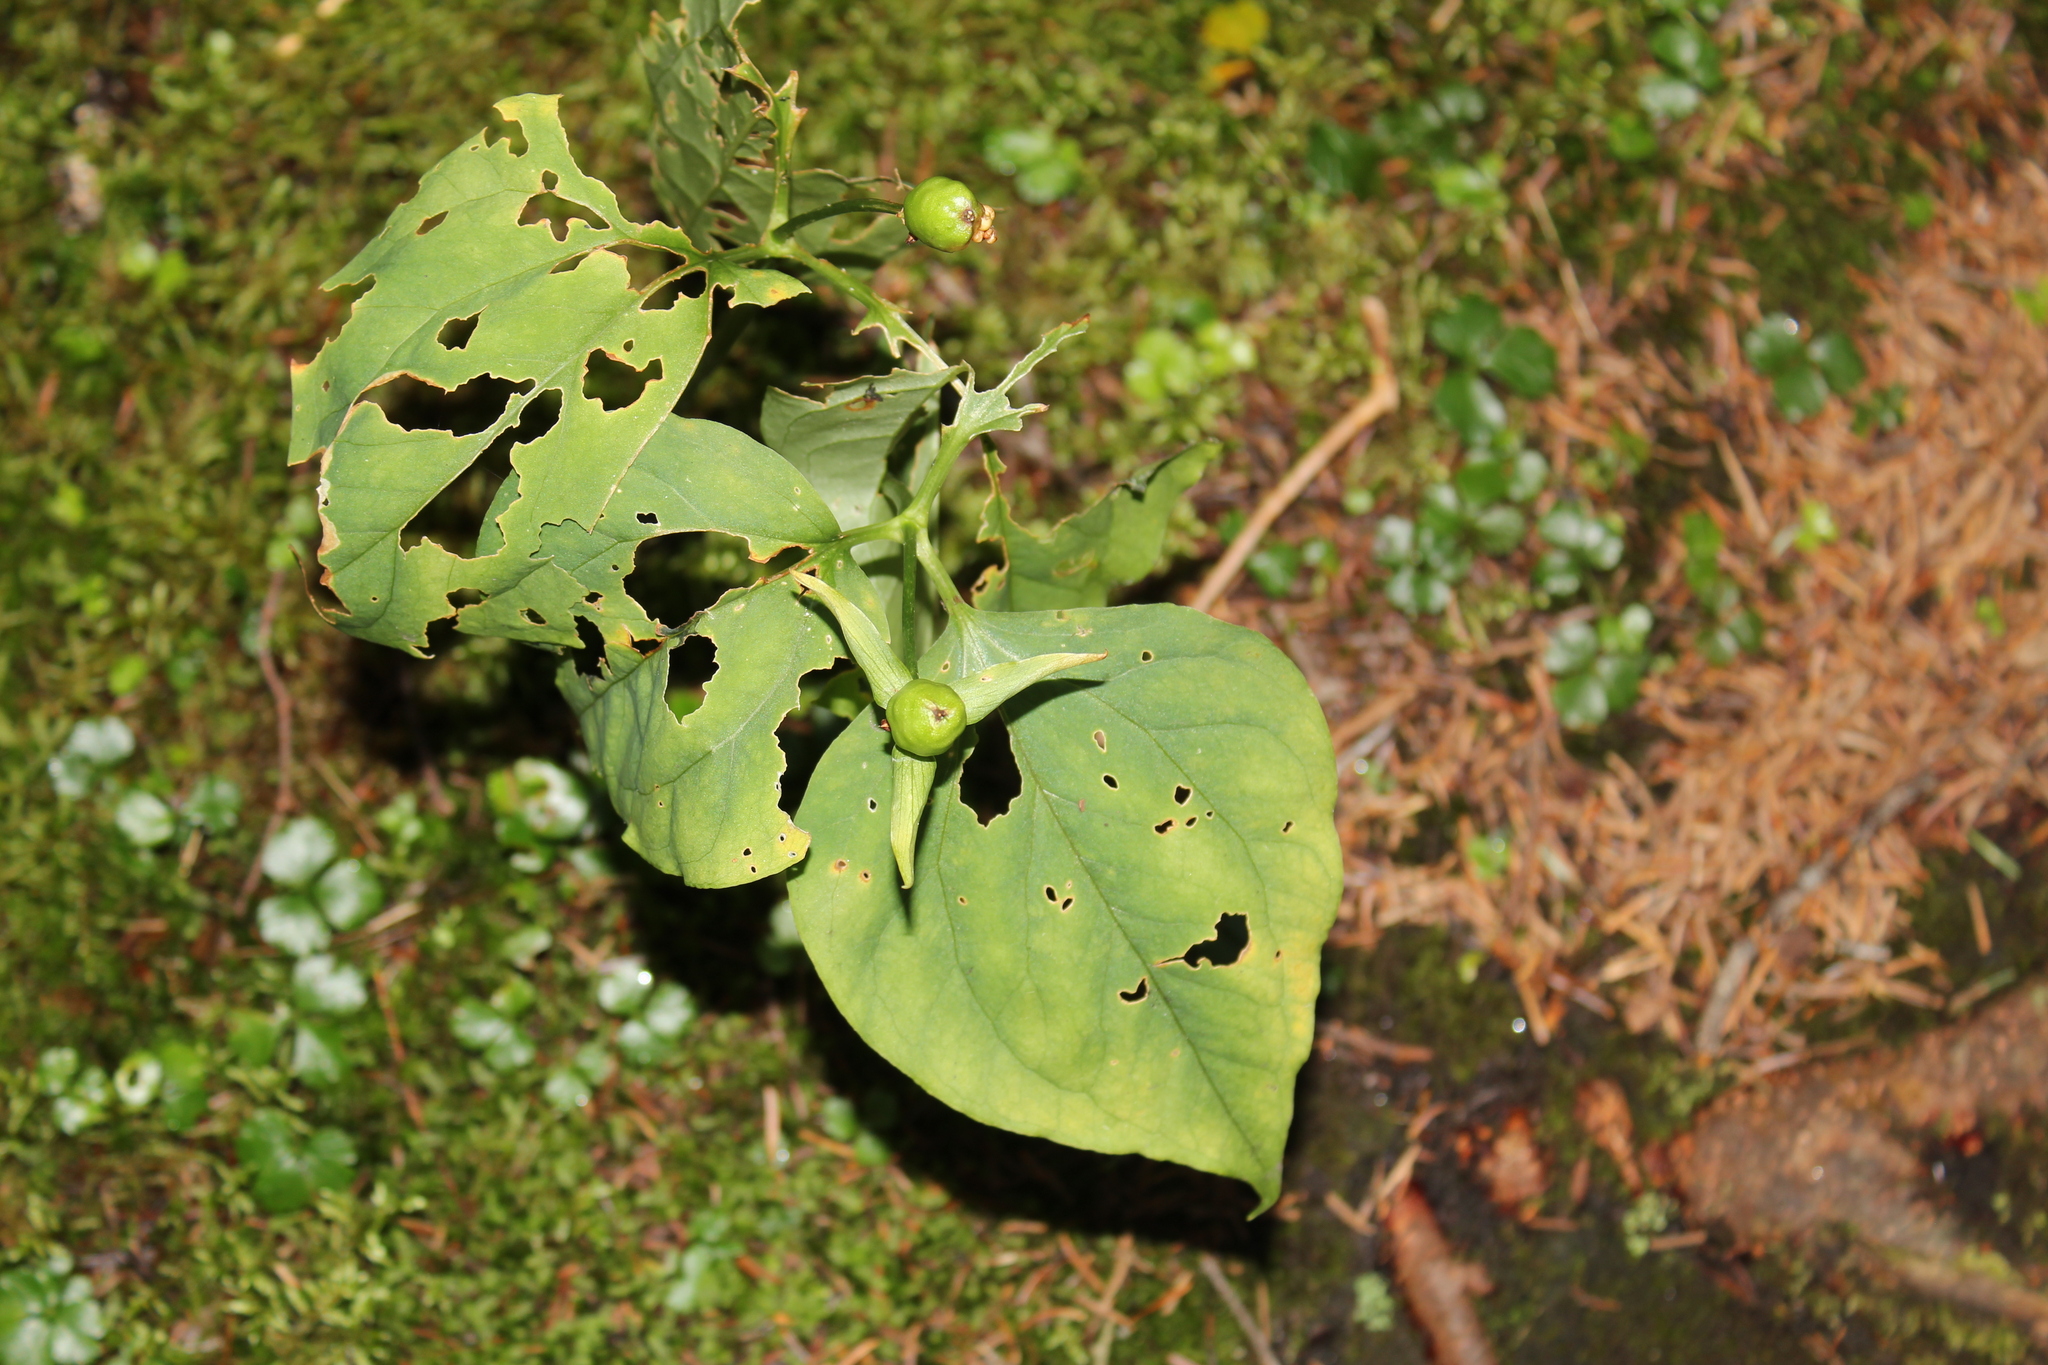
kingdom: Plantae
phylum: Tracheophyta
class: Liliopsida
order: Liliales
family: Melanthiaceae
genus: Trillium
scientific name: Trillium undulatum
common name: Paint trillium
